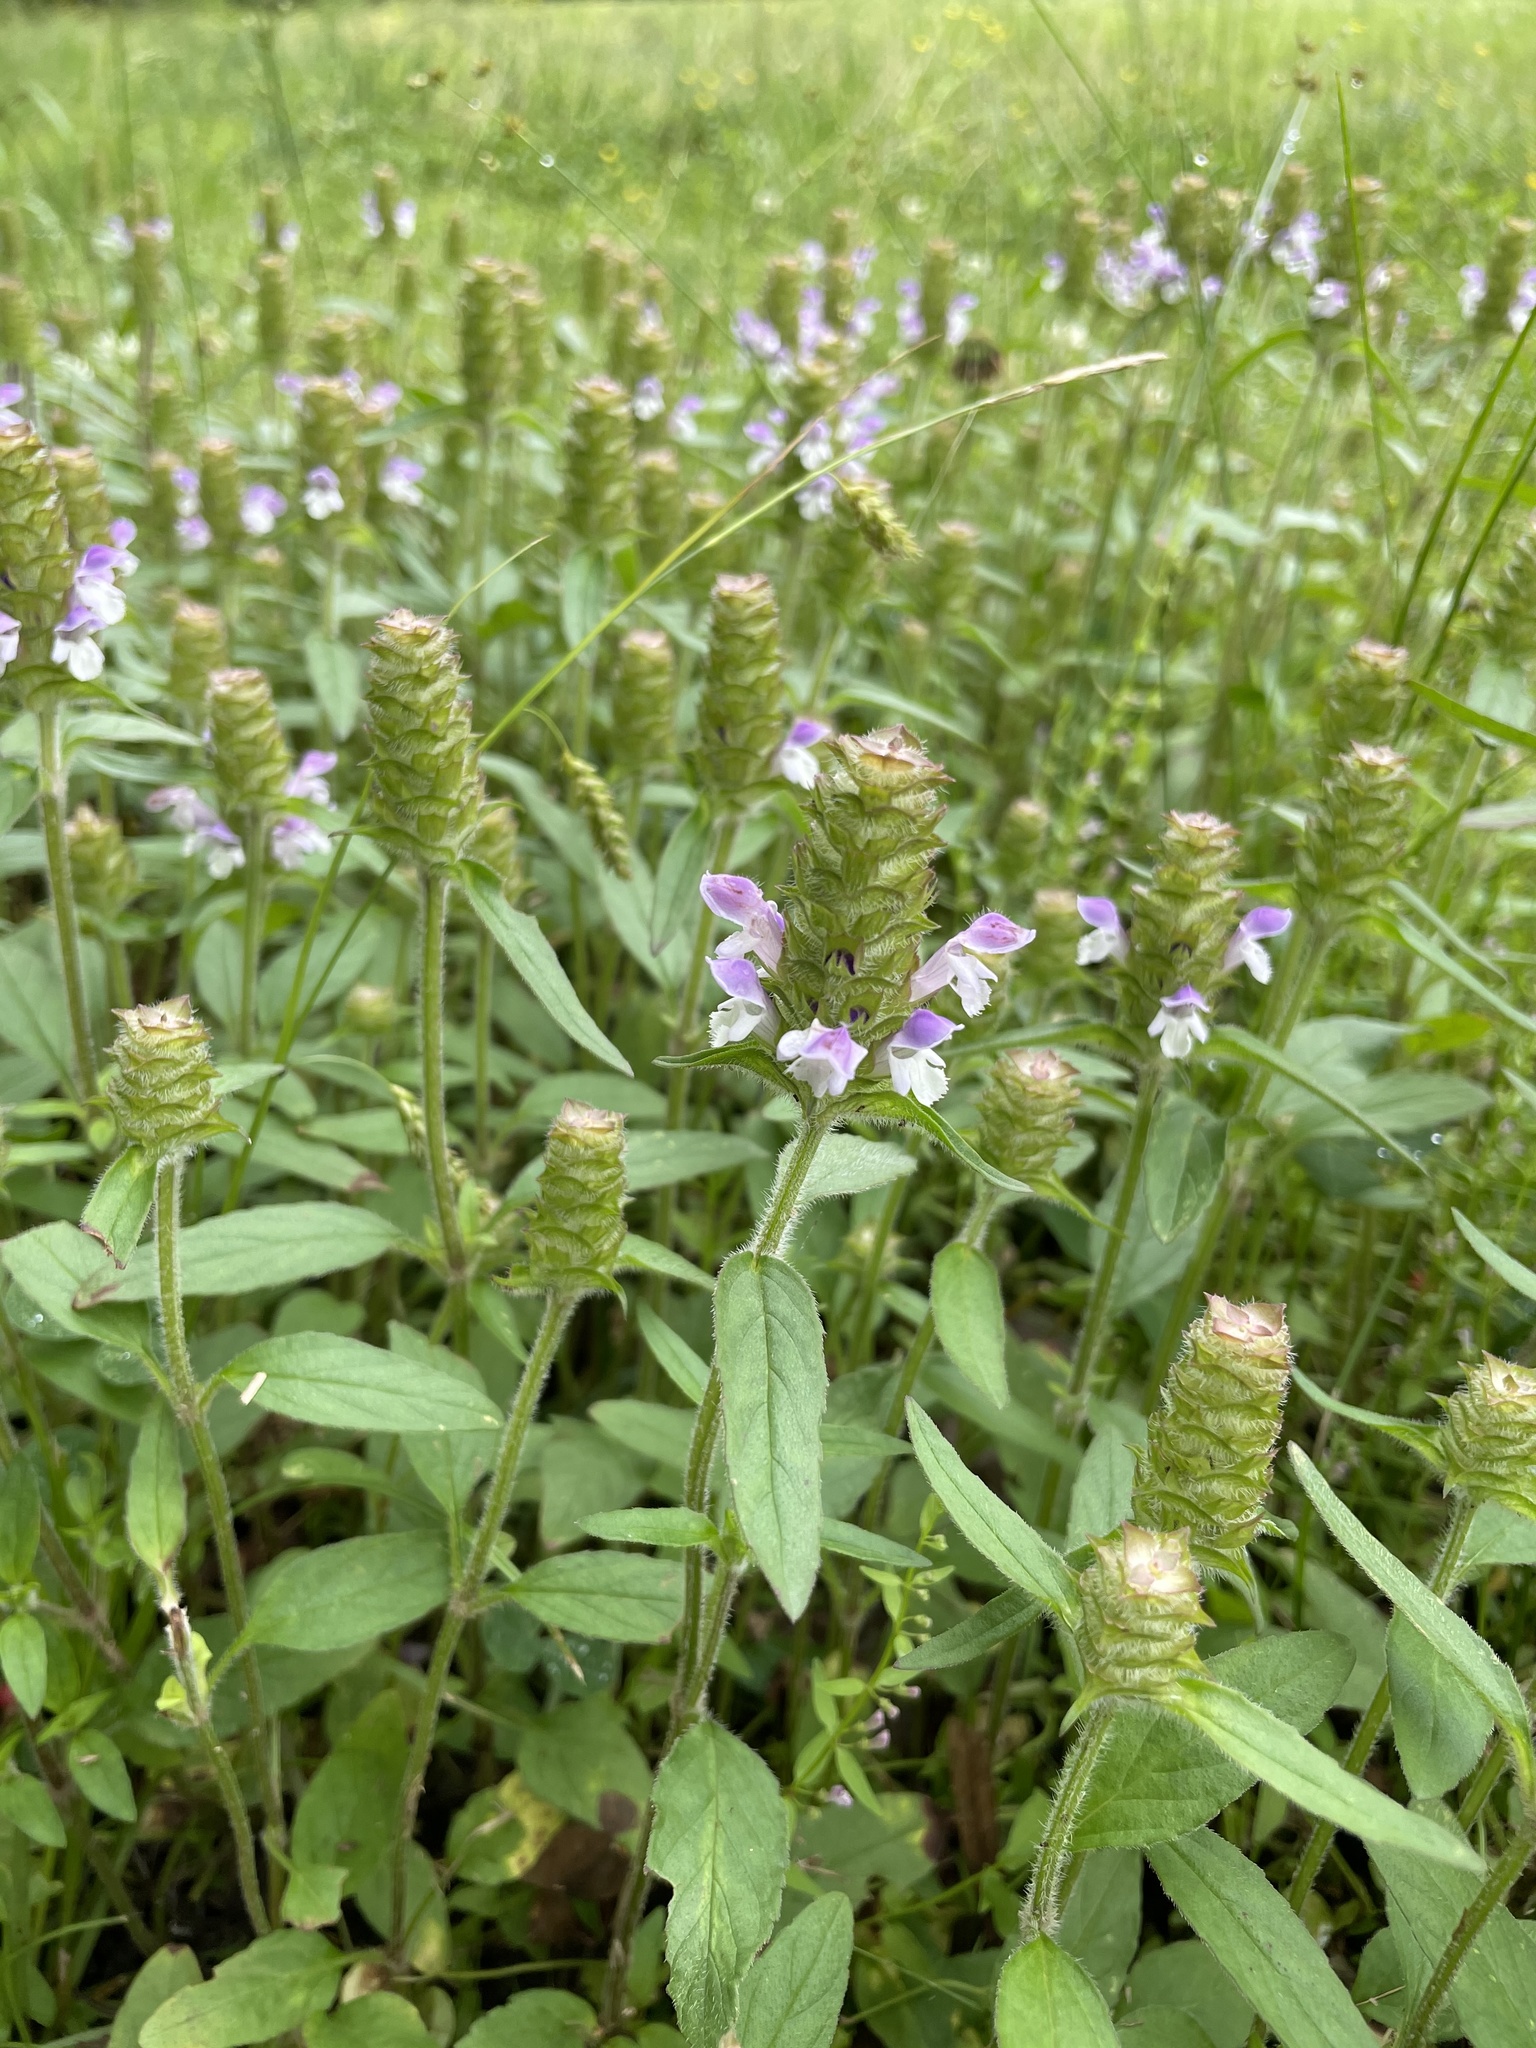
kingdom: Plantae
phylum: Tracheophyta
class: Magnoliopsida
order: Lamiales
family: Lamiaceae
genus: Prunella
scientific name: Prunella vulgaris
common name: Heal-all
